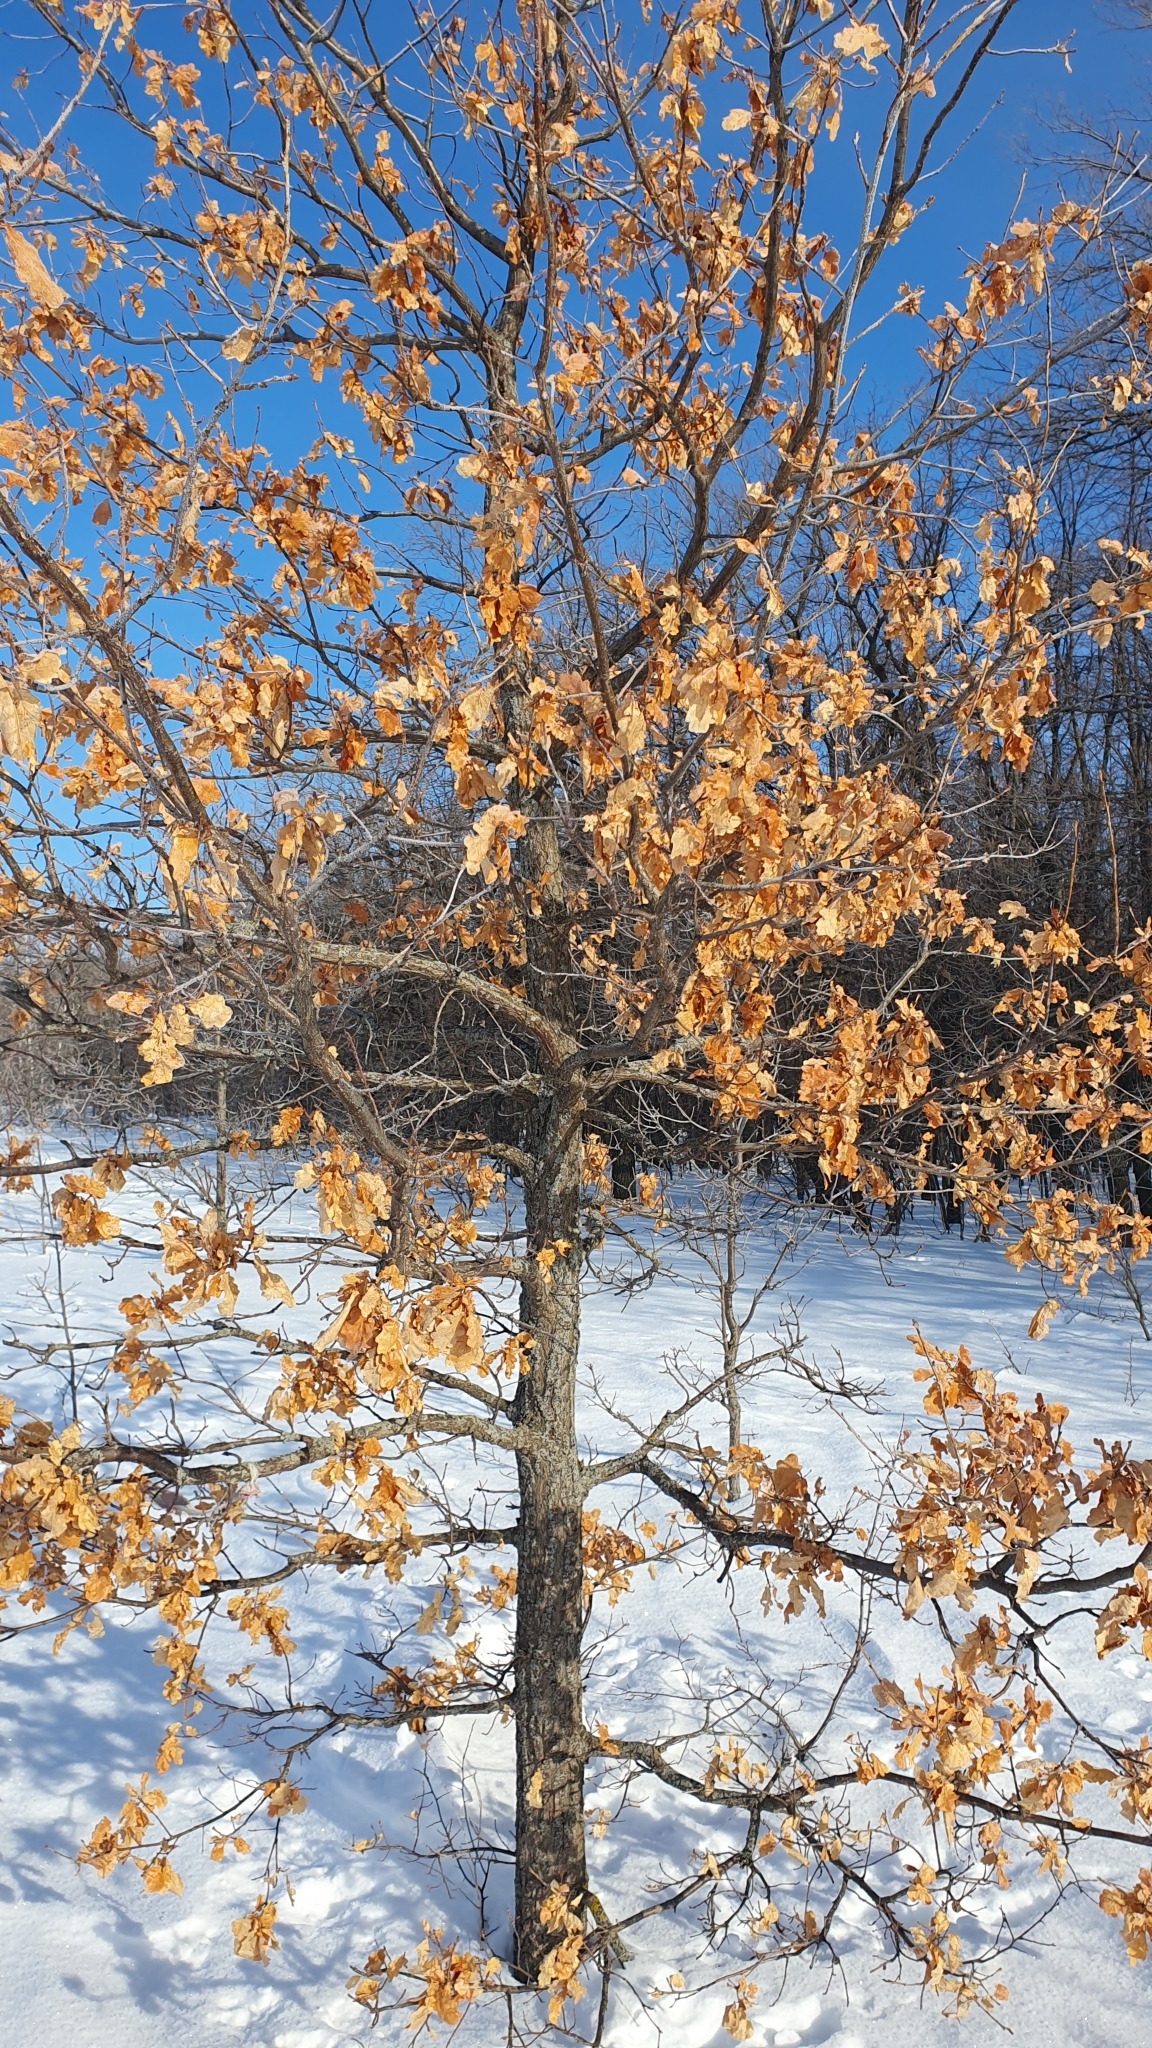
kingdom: Plantae
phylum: Tracheophyta
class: Magnoliopsida
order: Fagales
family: Fagaceae
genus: Quercus
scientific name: Quercus robur
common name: Pedunculate oak
